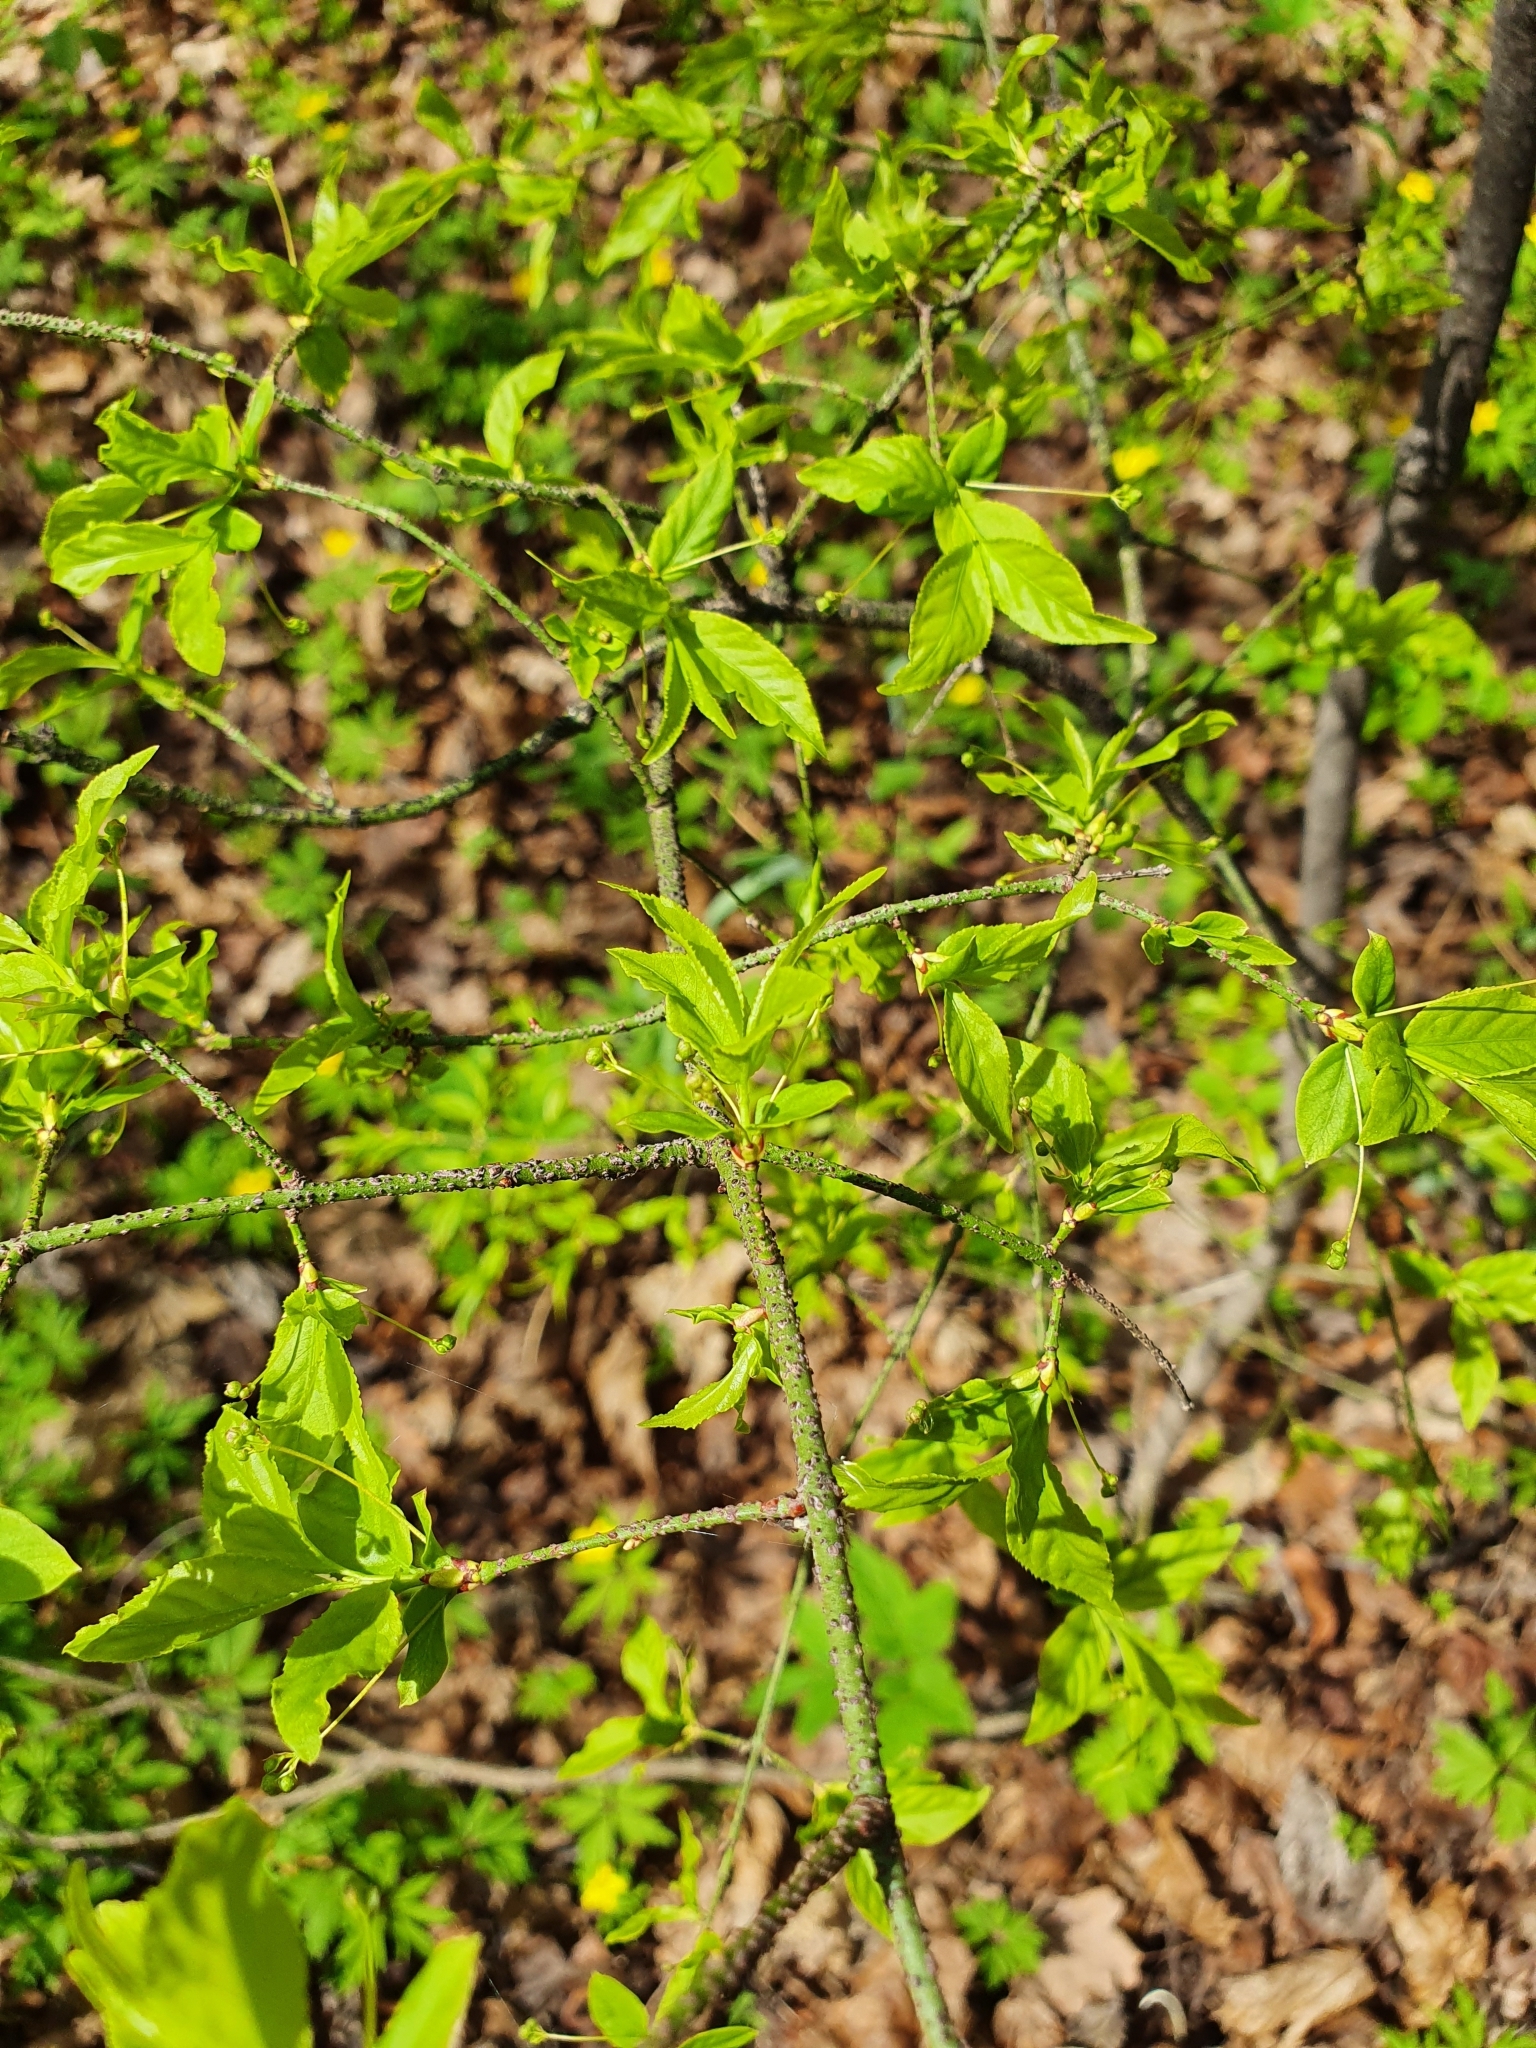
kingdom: Plantae
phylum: Tracheophyta
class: Magnoliopsida
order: Celastrales
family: Celastraceae
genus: Euonymus
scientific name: Euonymus verrucosus
